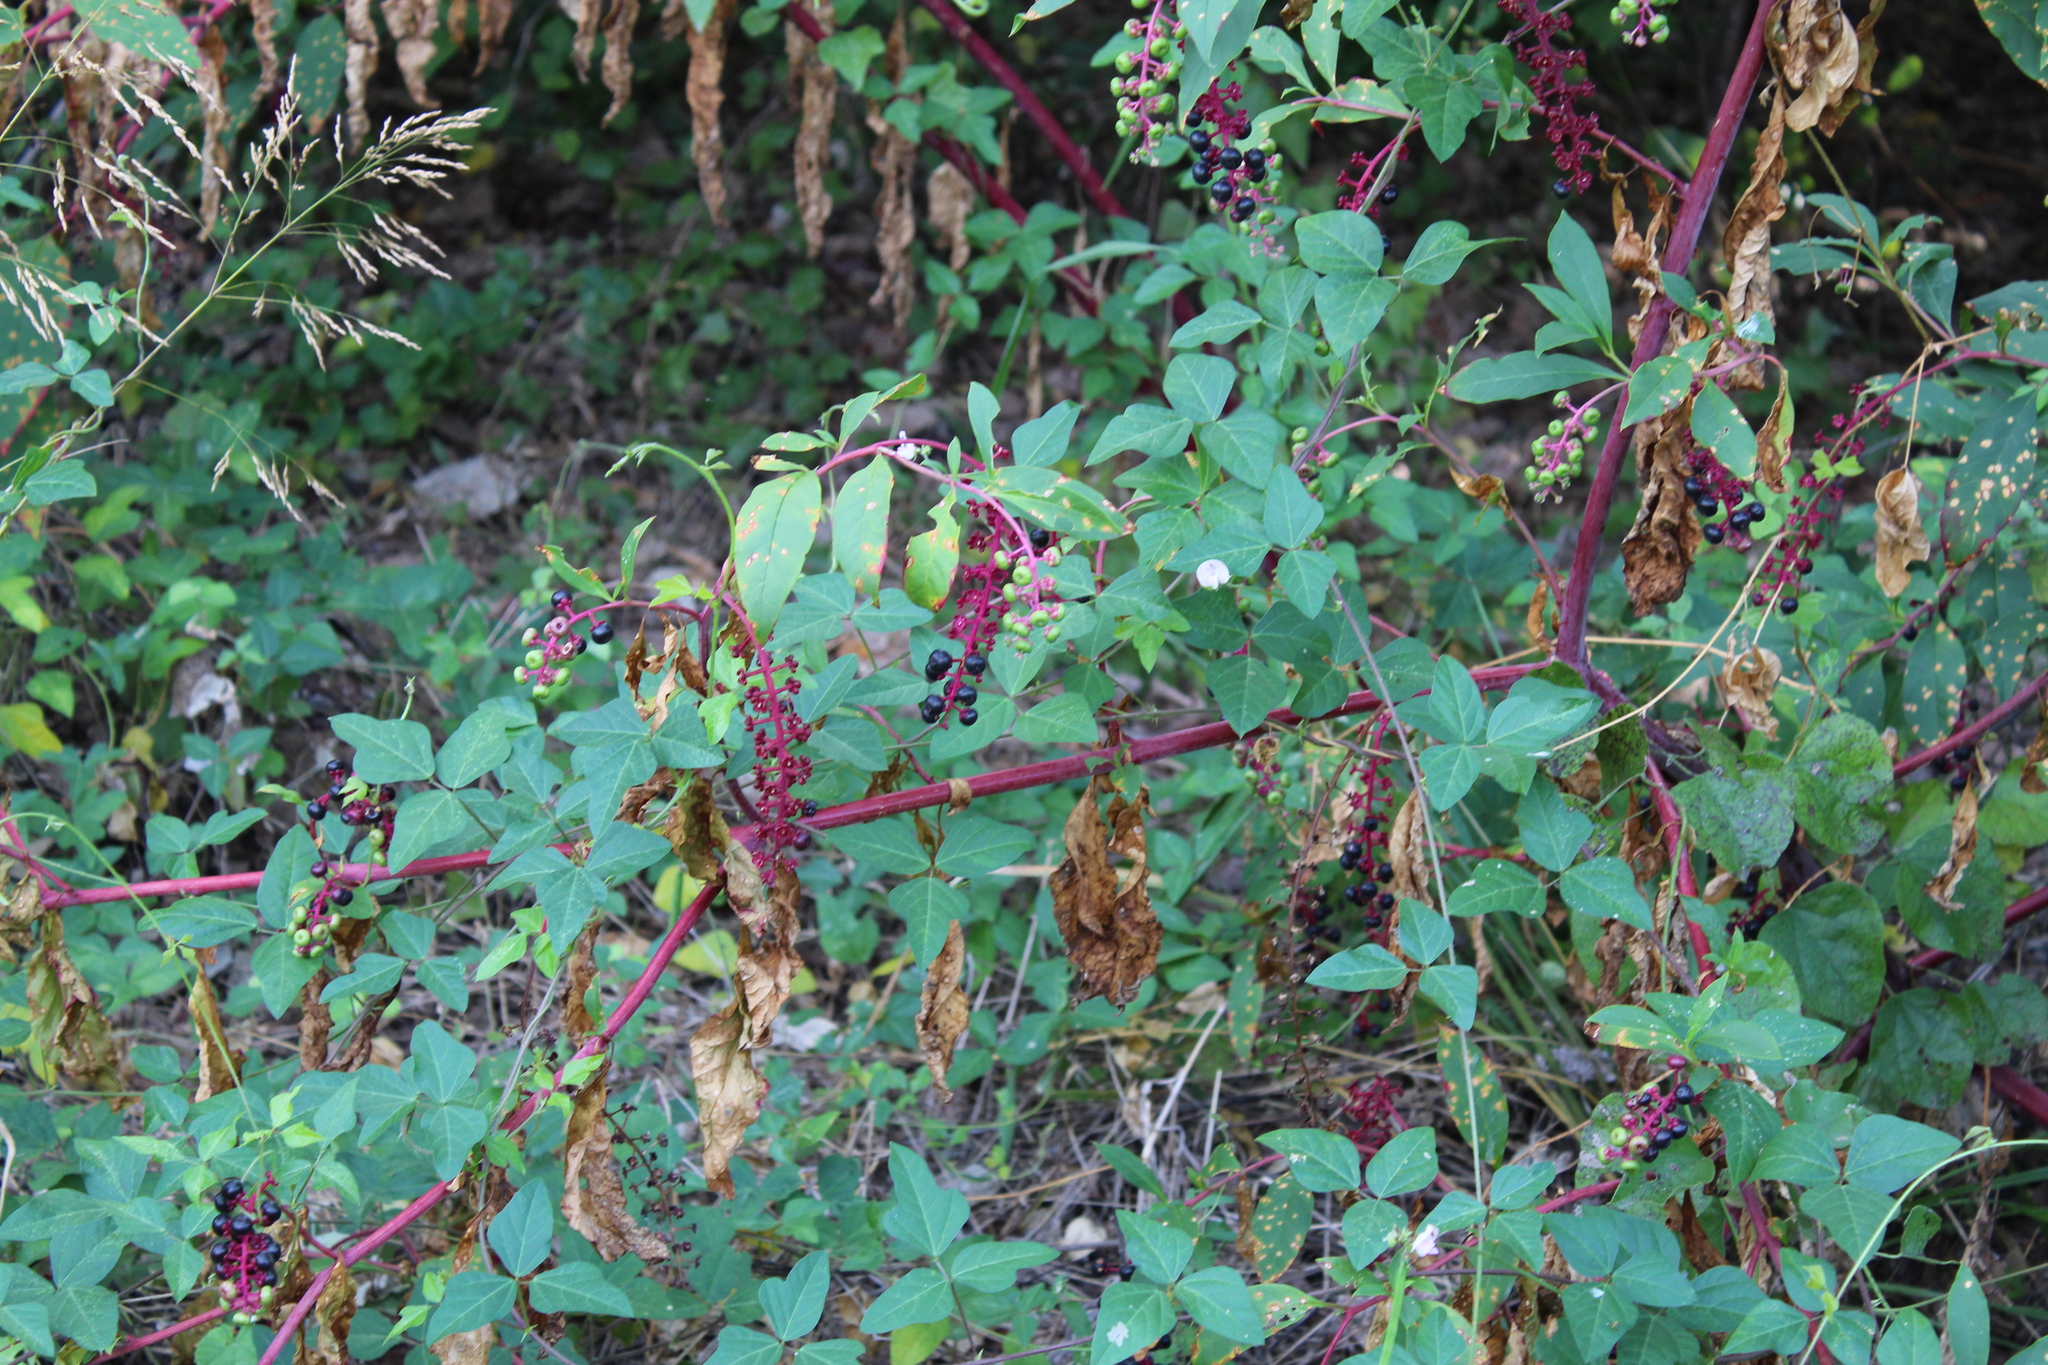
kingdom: Plantae
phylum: Tracheophyta
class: Magnoliopsida
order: Caryophyllales
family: Phytolaccaceae
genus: Phytolacca
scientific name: Phytolacca americana
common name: American pokeweed
